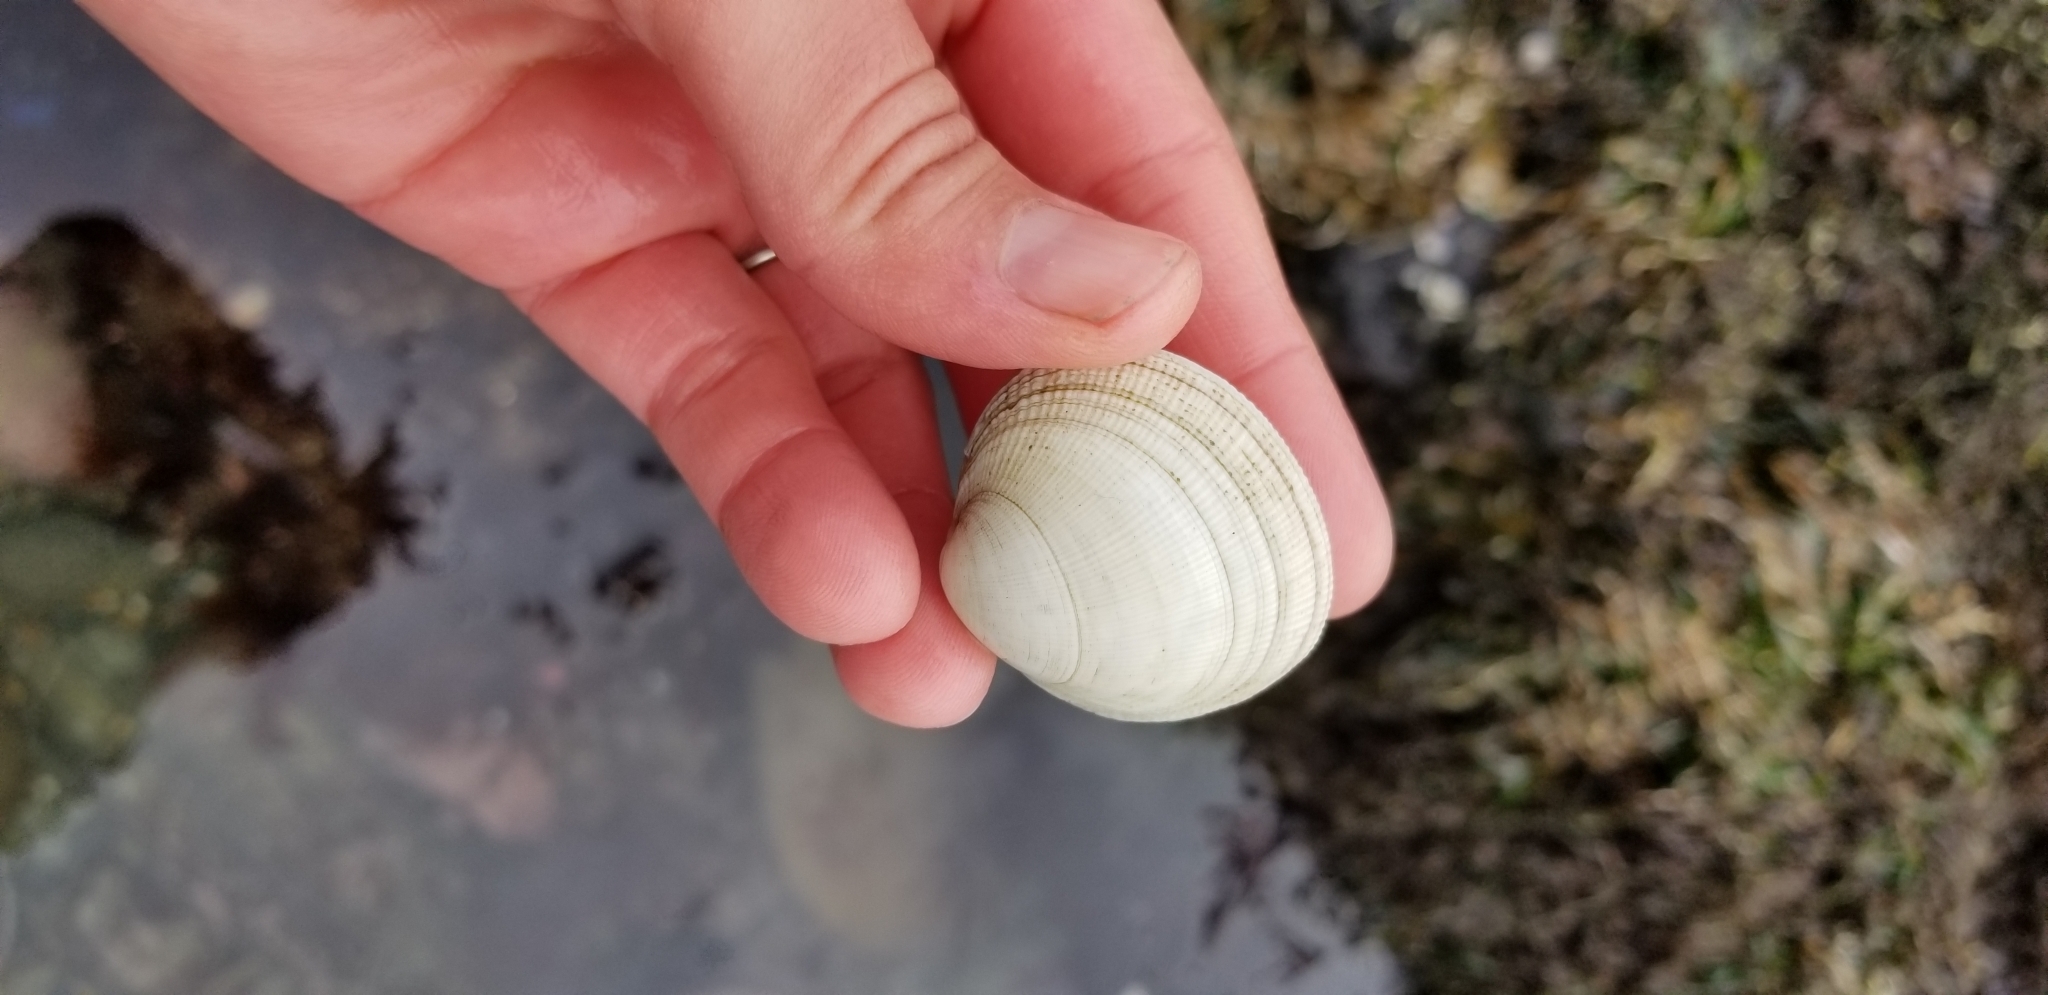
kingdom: Animalia
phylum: Mollusca
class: Bivalvia
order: Venerida
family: Veneridae
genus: Leukoma
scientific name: Leukoma staminea
